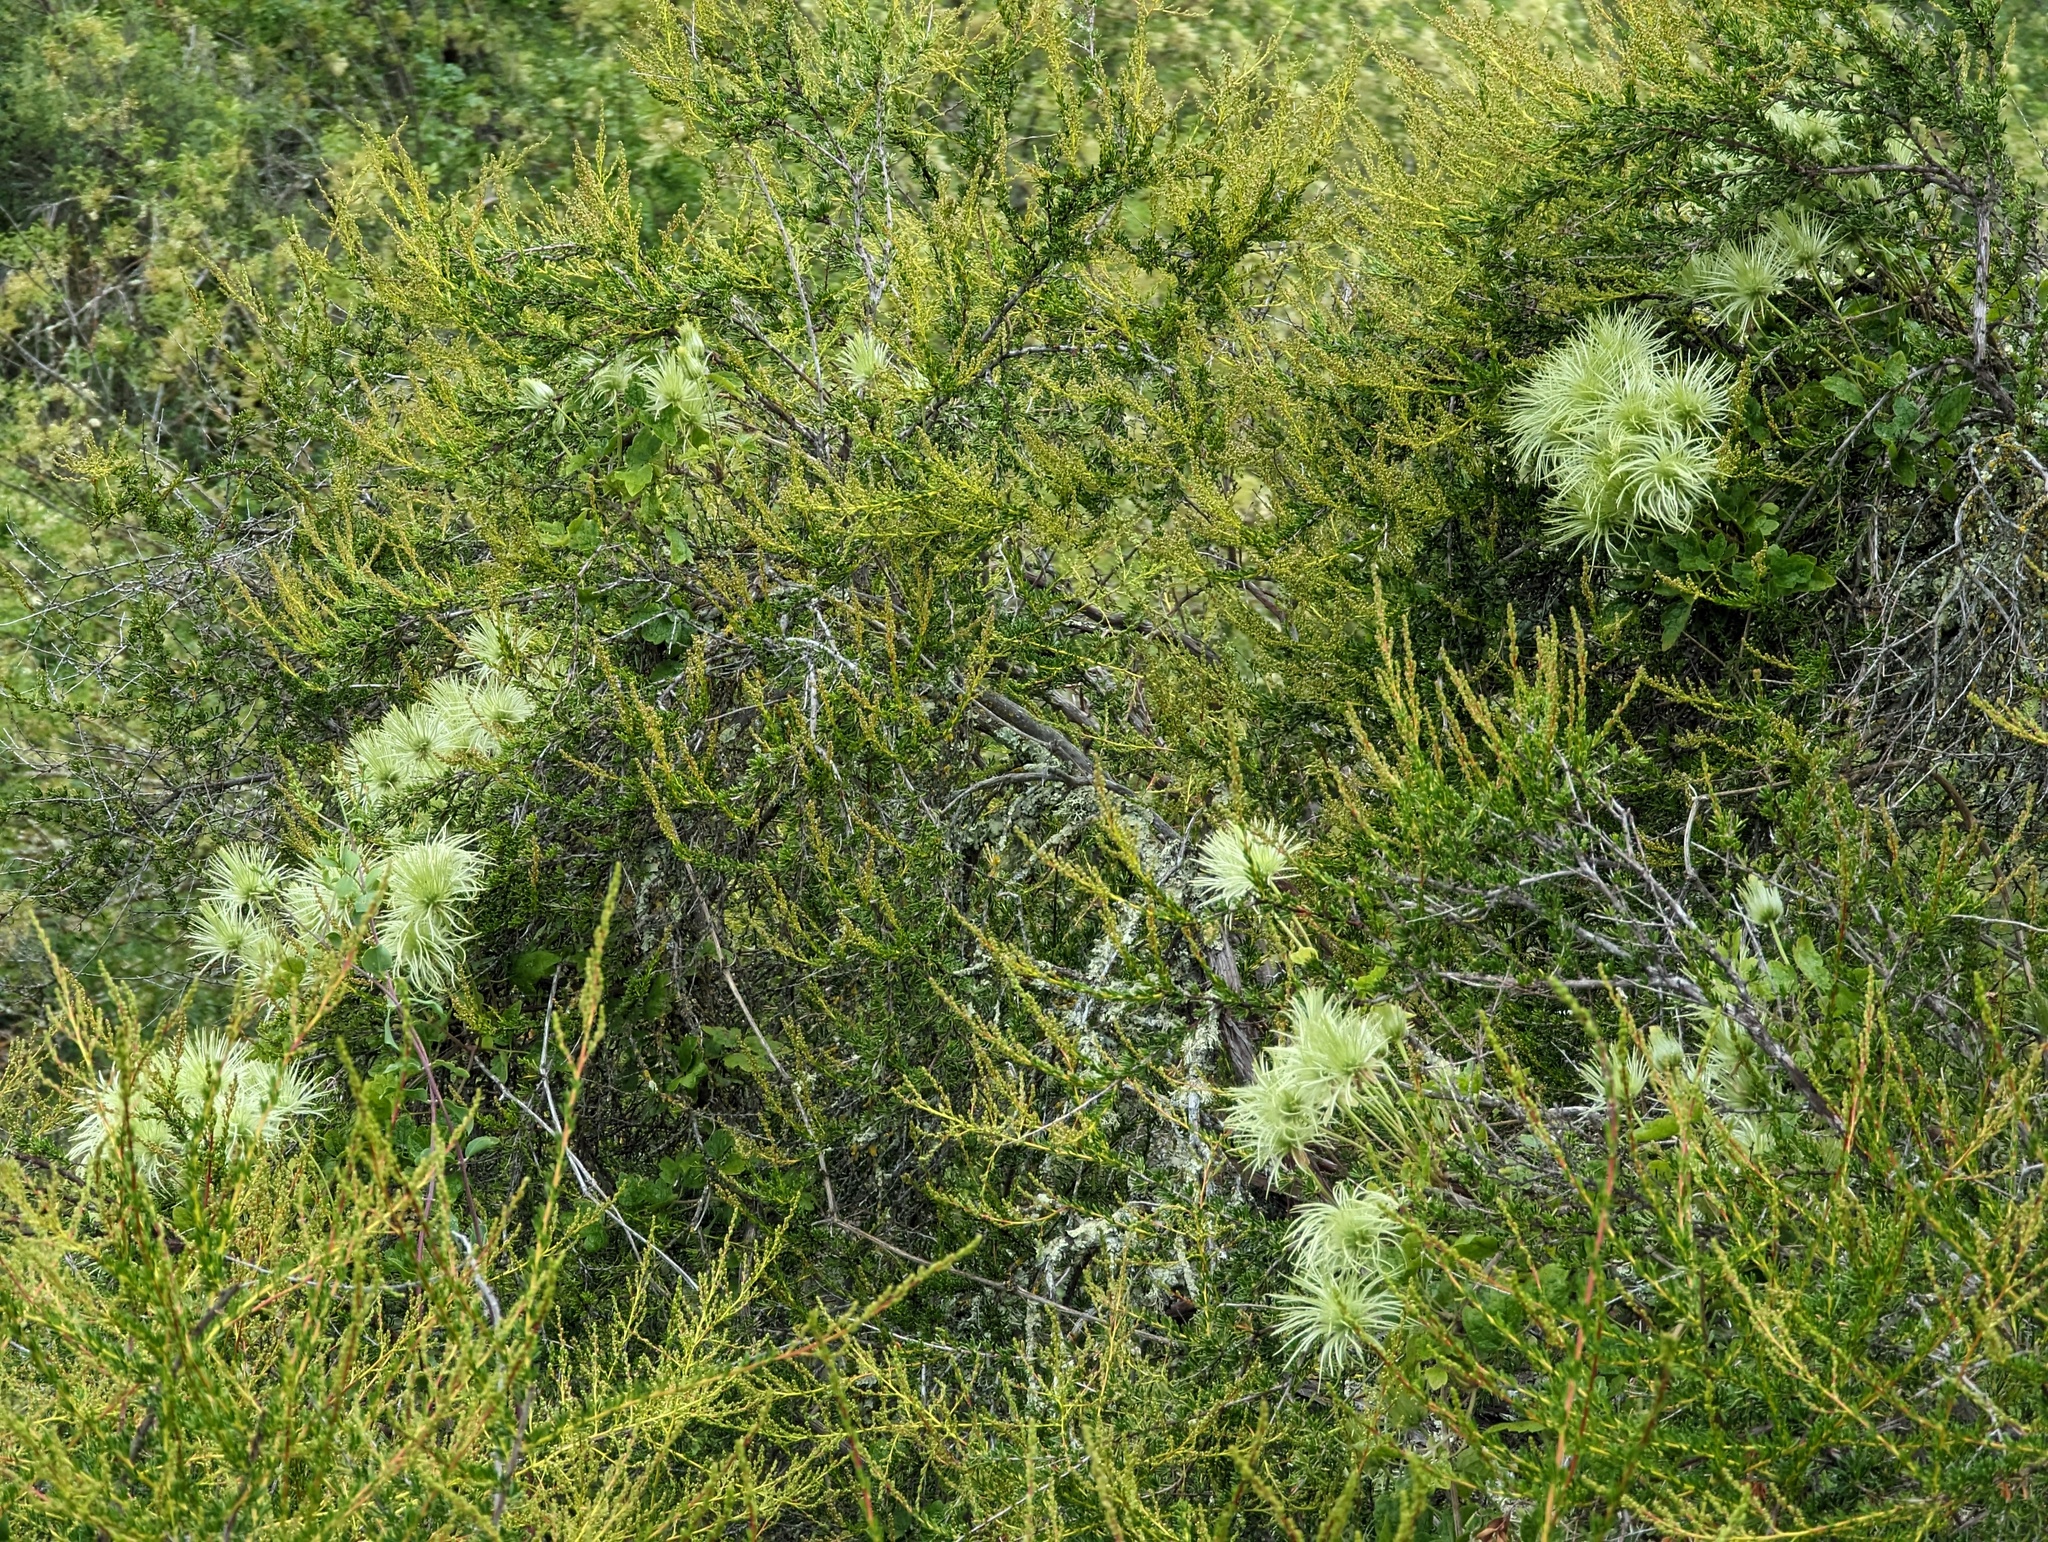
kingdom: Plantae
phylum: Tracheophyta
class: Magnoliopsida
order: Ranunculales
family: Ranunculaceae
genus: Clematis
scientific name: Clematis lasiantha
